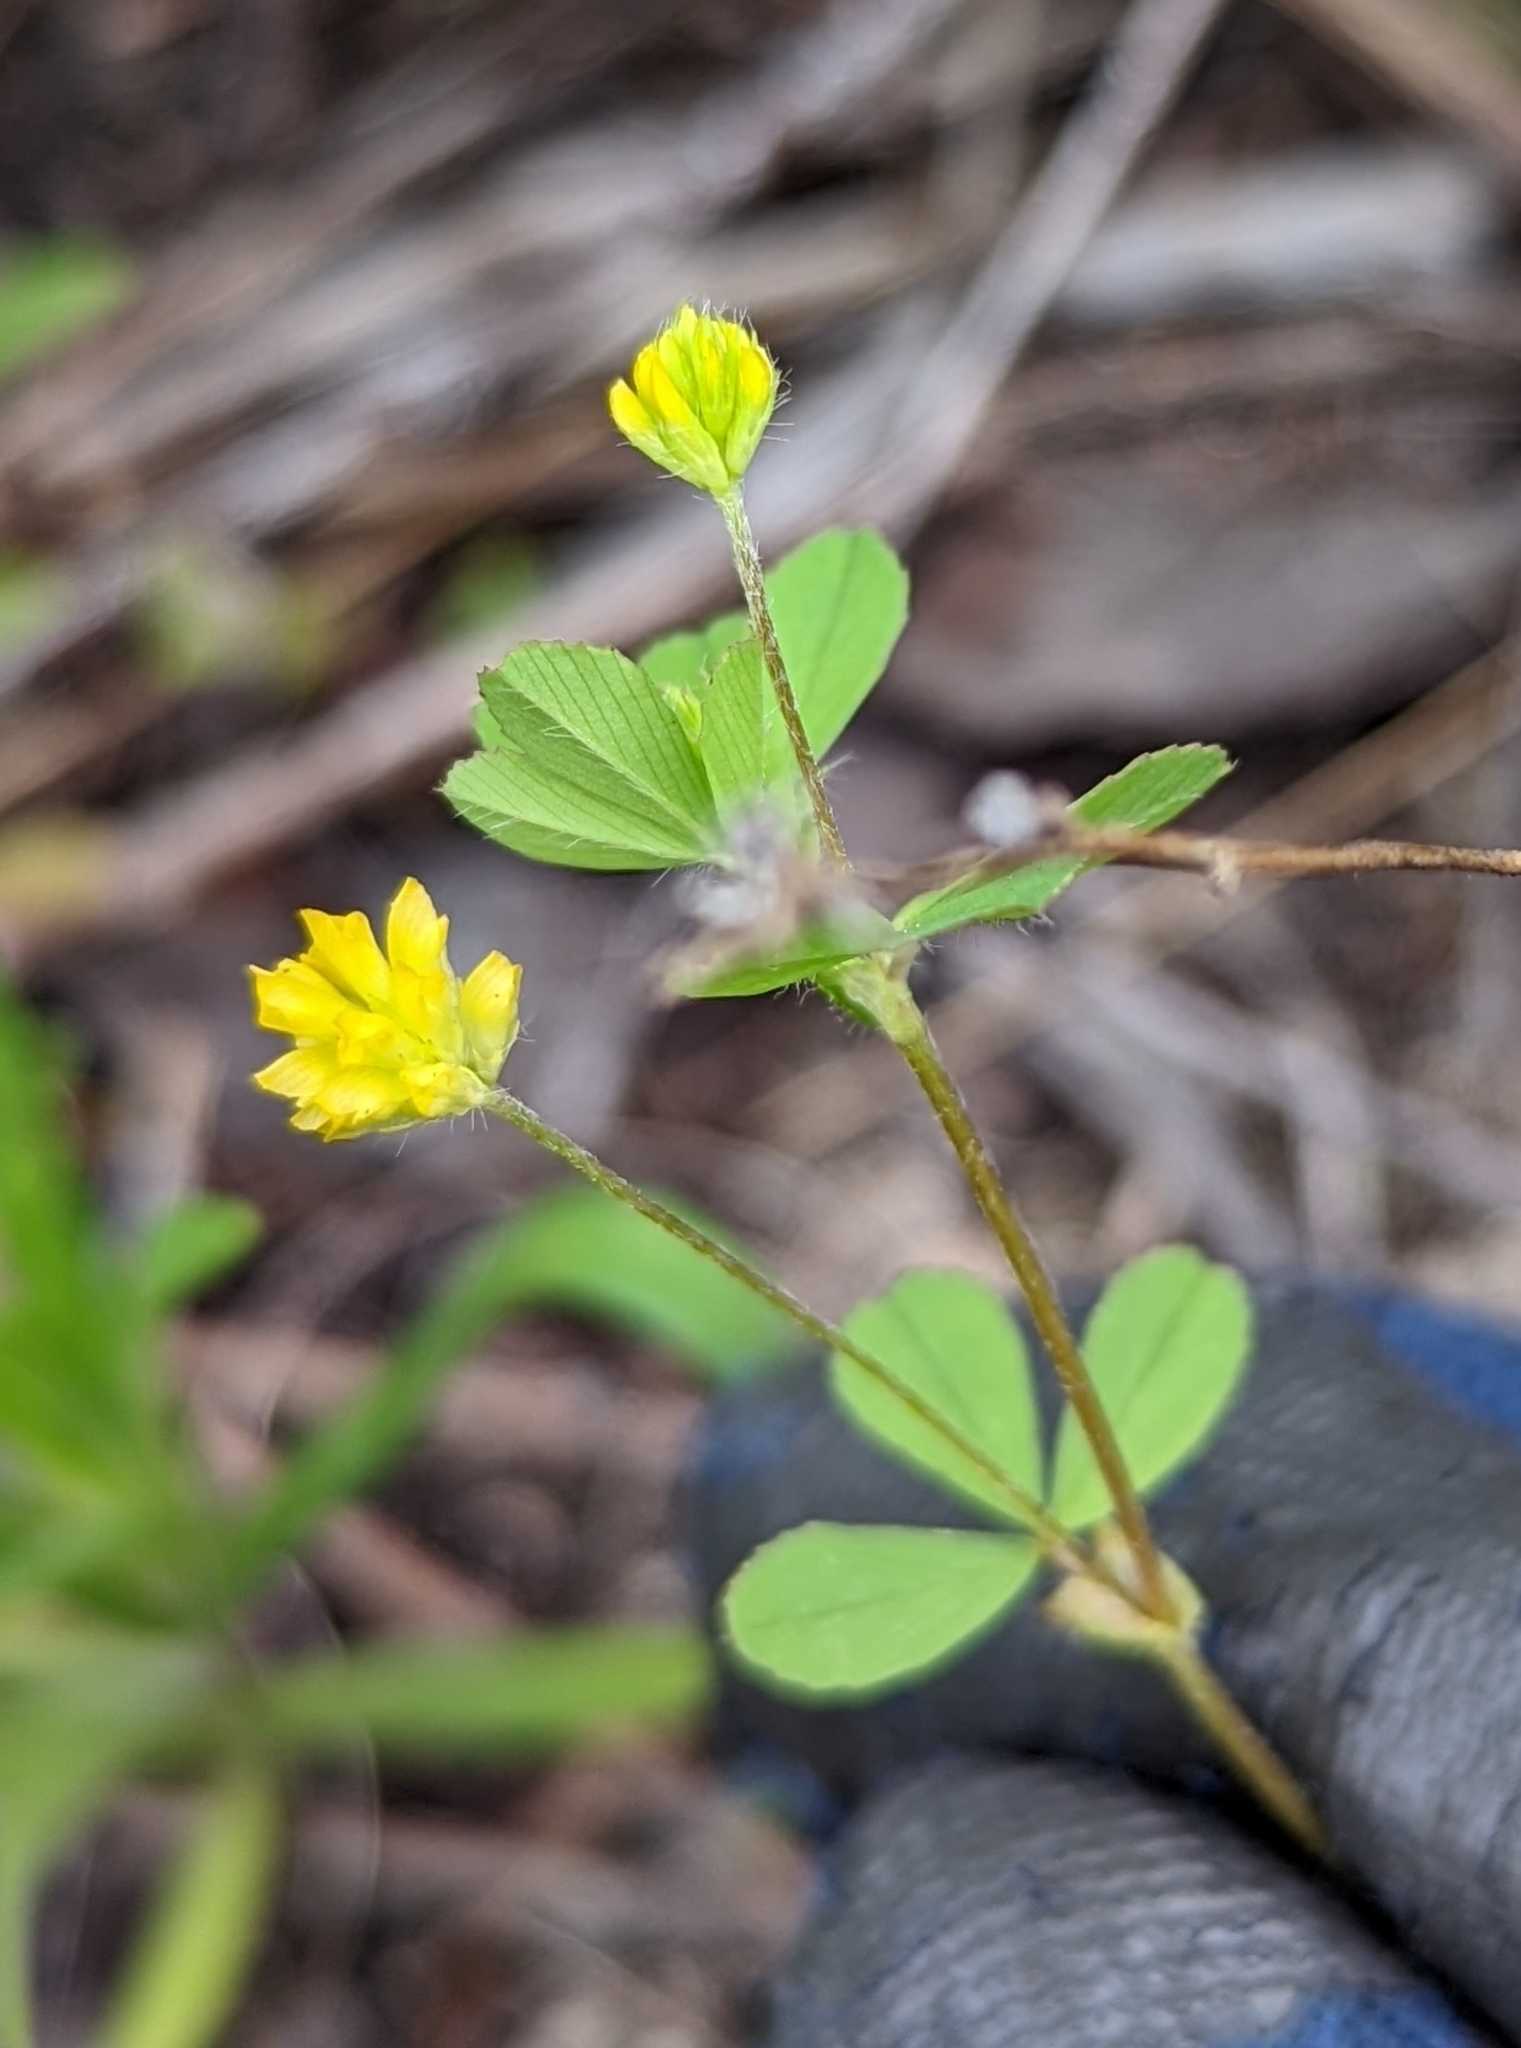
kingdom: Plantae
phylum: Tracheophyta
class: Magnoliopsida
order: Fabales
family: Fabaceae
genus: Trifolium
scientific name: Trifolium dubium
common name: Suckling clover
